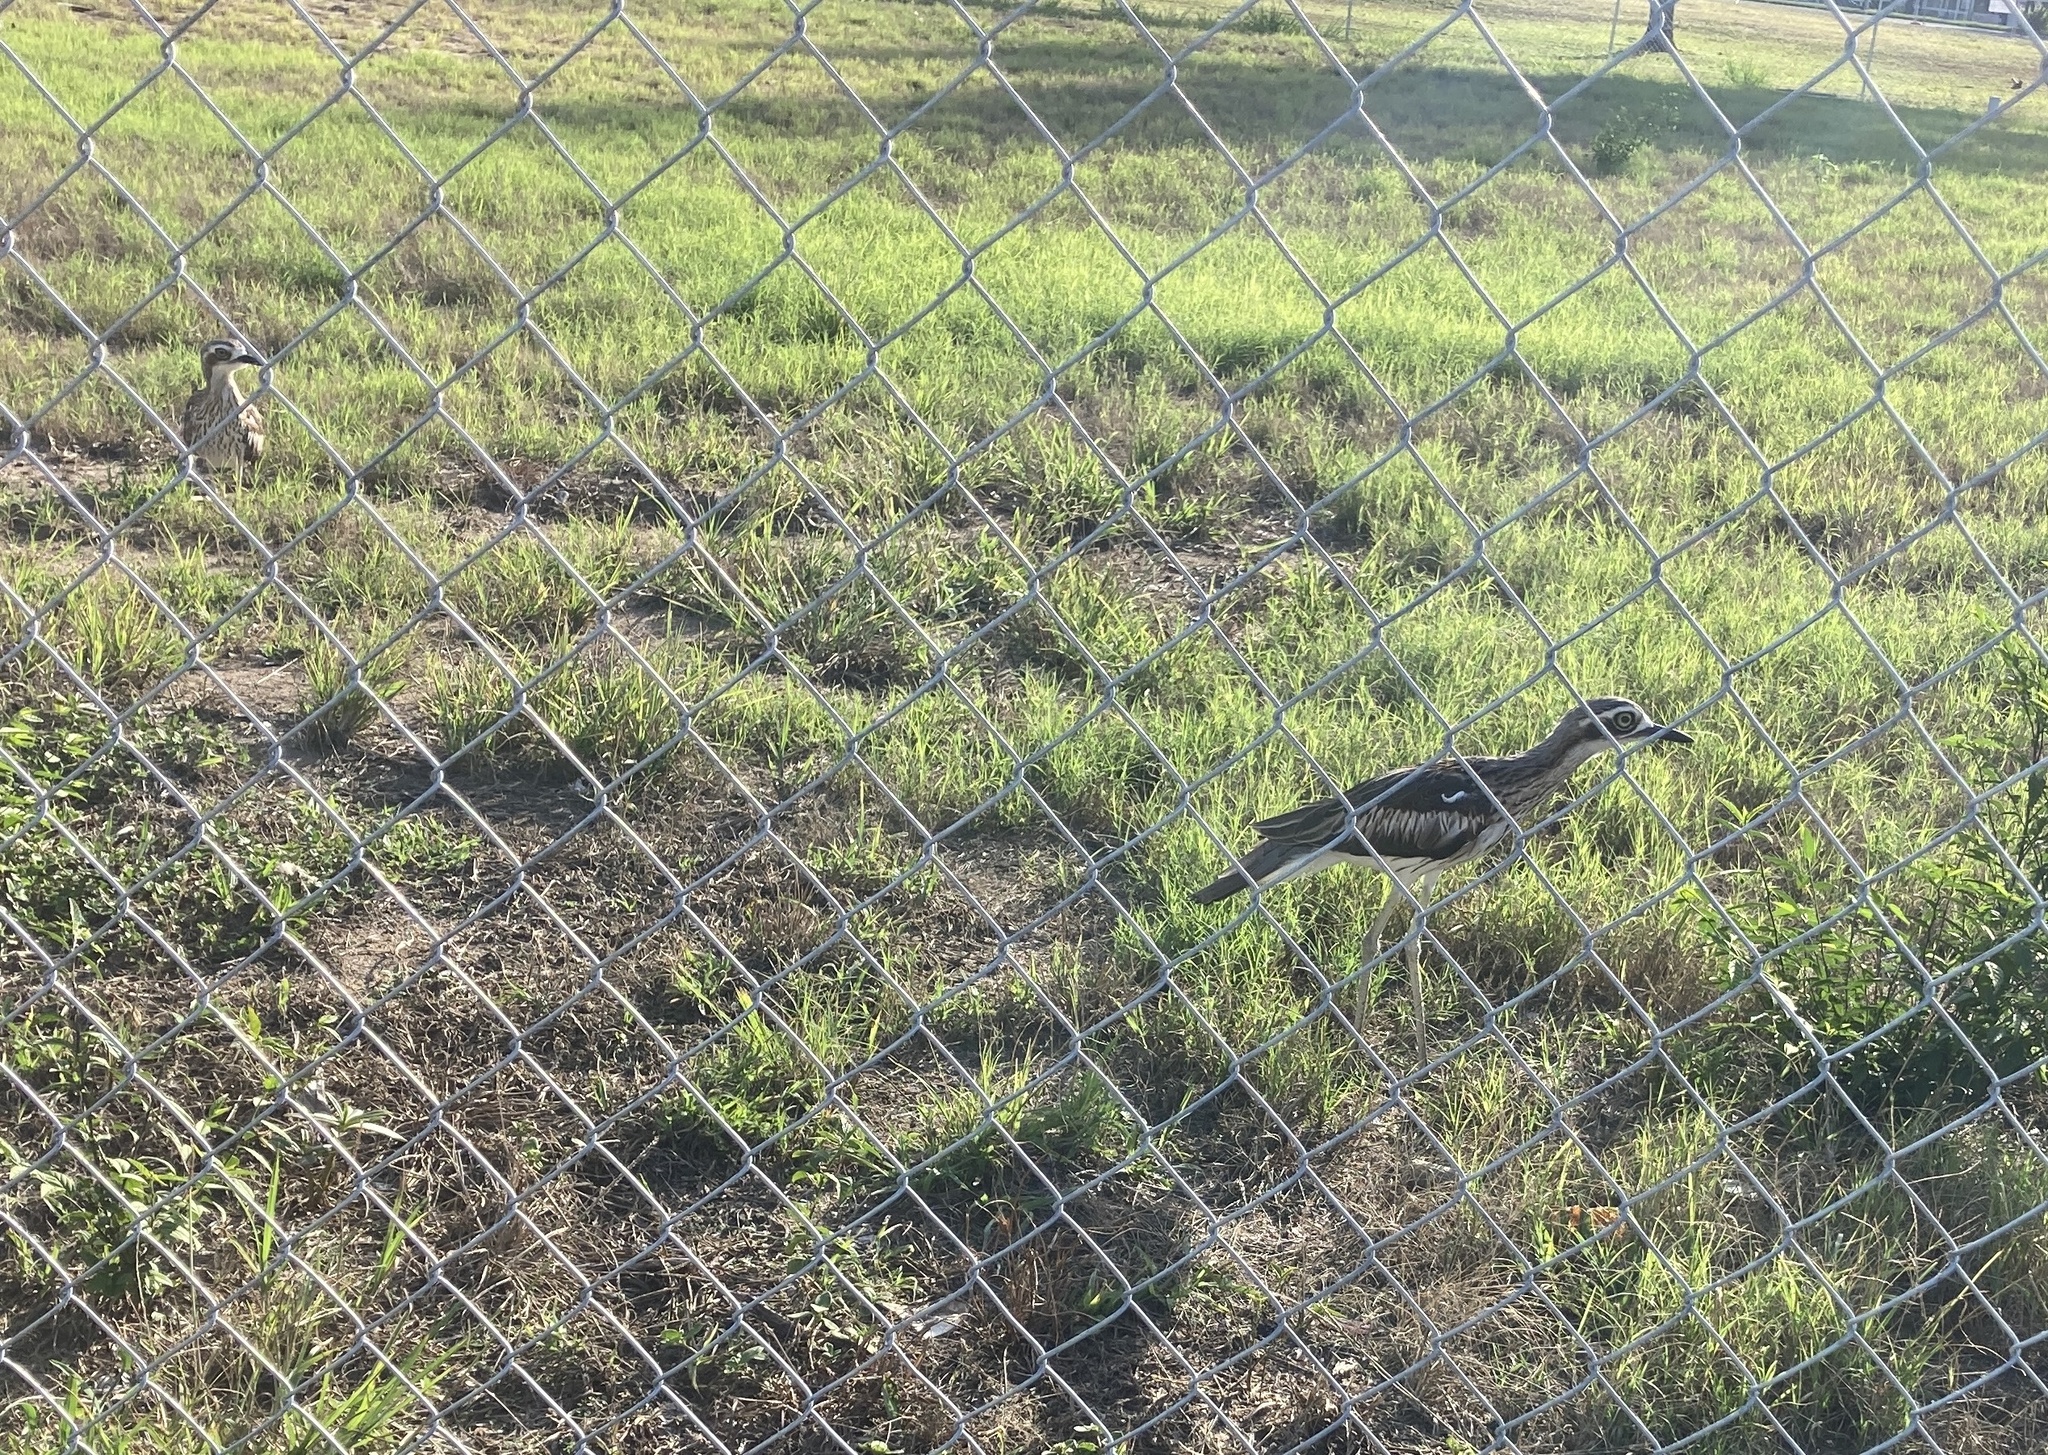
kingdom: Animalia
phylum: Chordata
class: Aves
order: Charadriiformes
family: Burhinidae
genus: Burhinus
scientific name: Burhinus grallarius
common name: Bush stone-curlew
